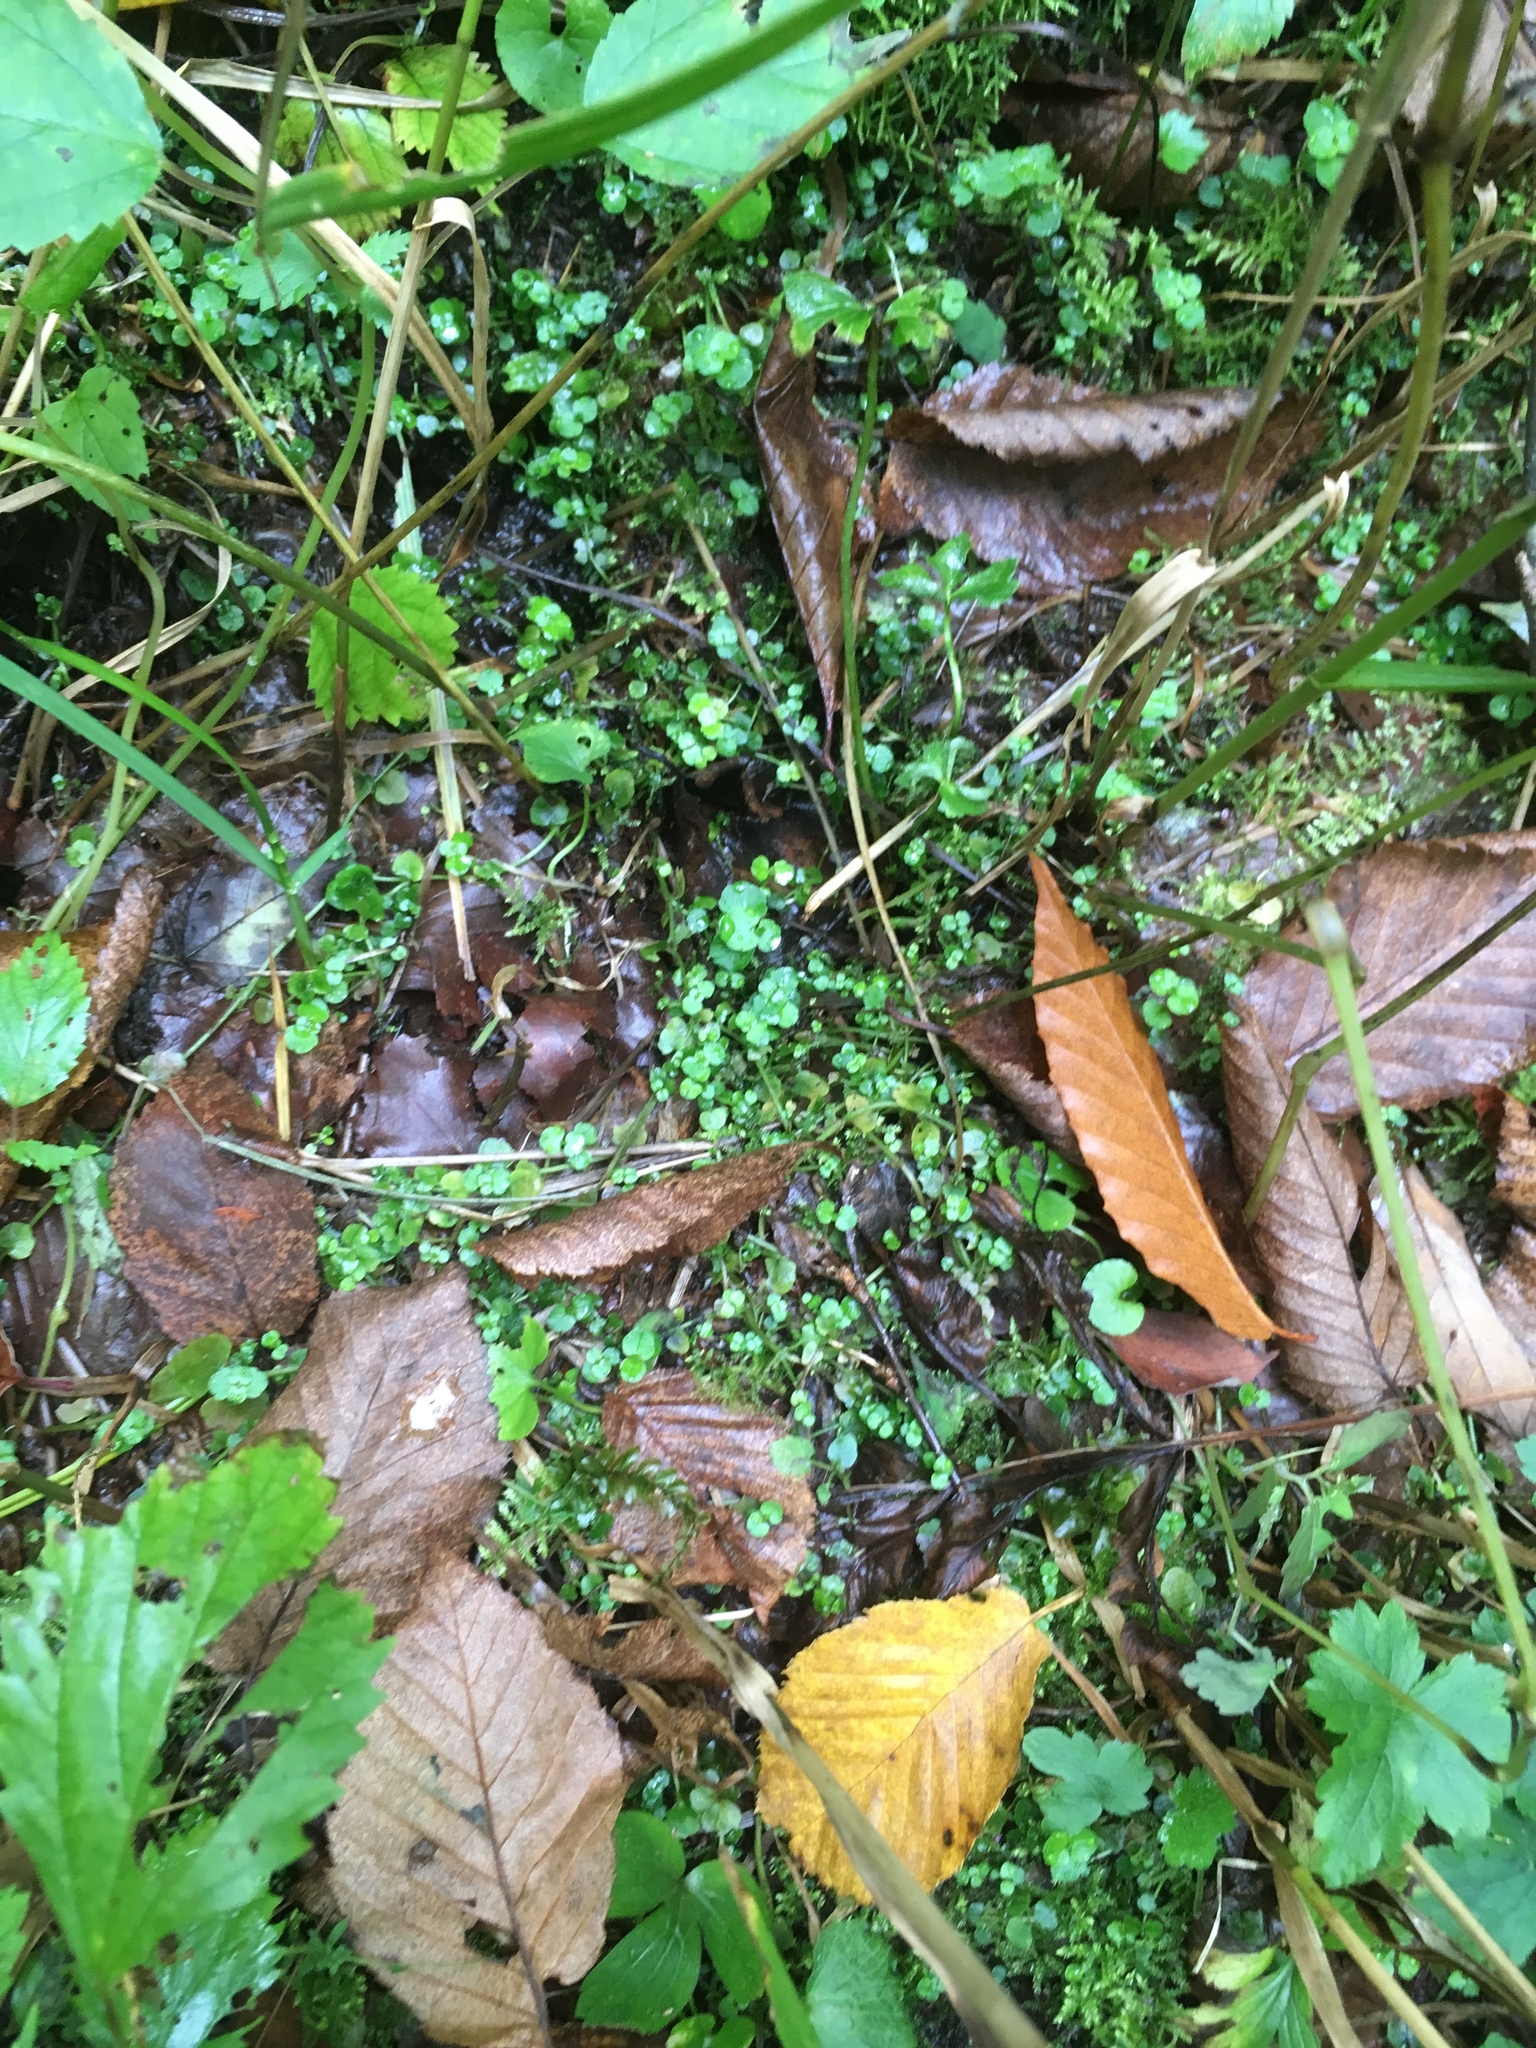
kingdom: Plantae
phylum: Tracheophyta
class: Magnoliopsida
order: Saxifragales
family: Saxifragaceae
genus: Chrysosplenium
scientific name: Chrysosplenium americanum
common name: American golden-saxifrage
